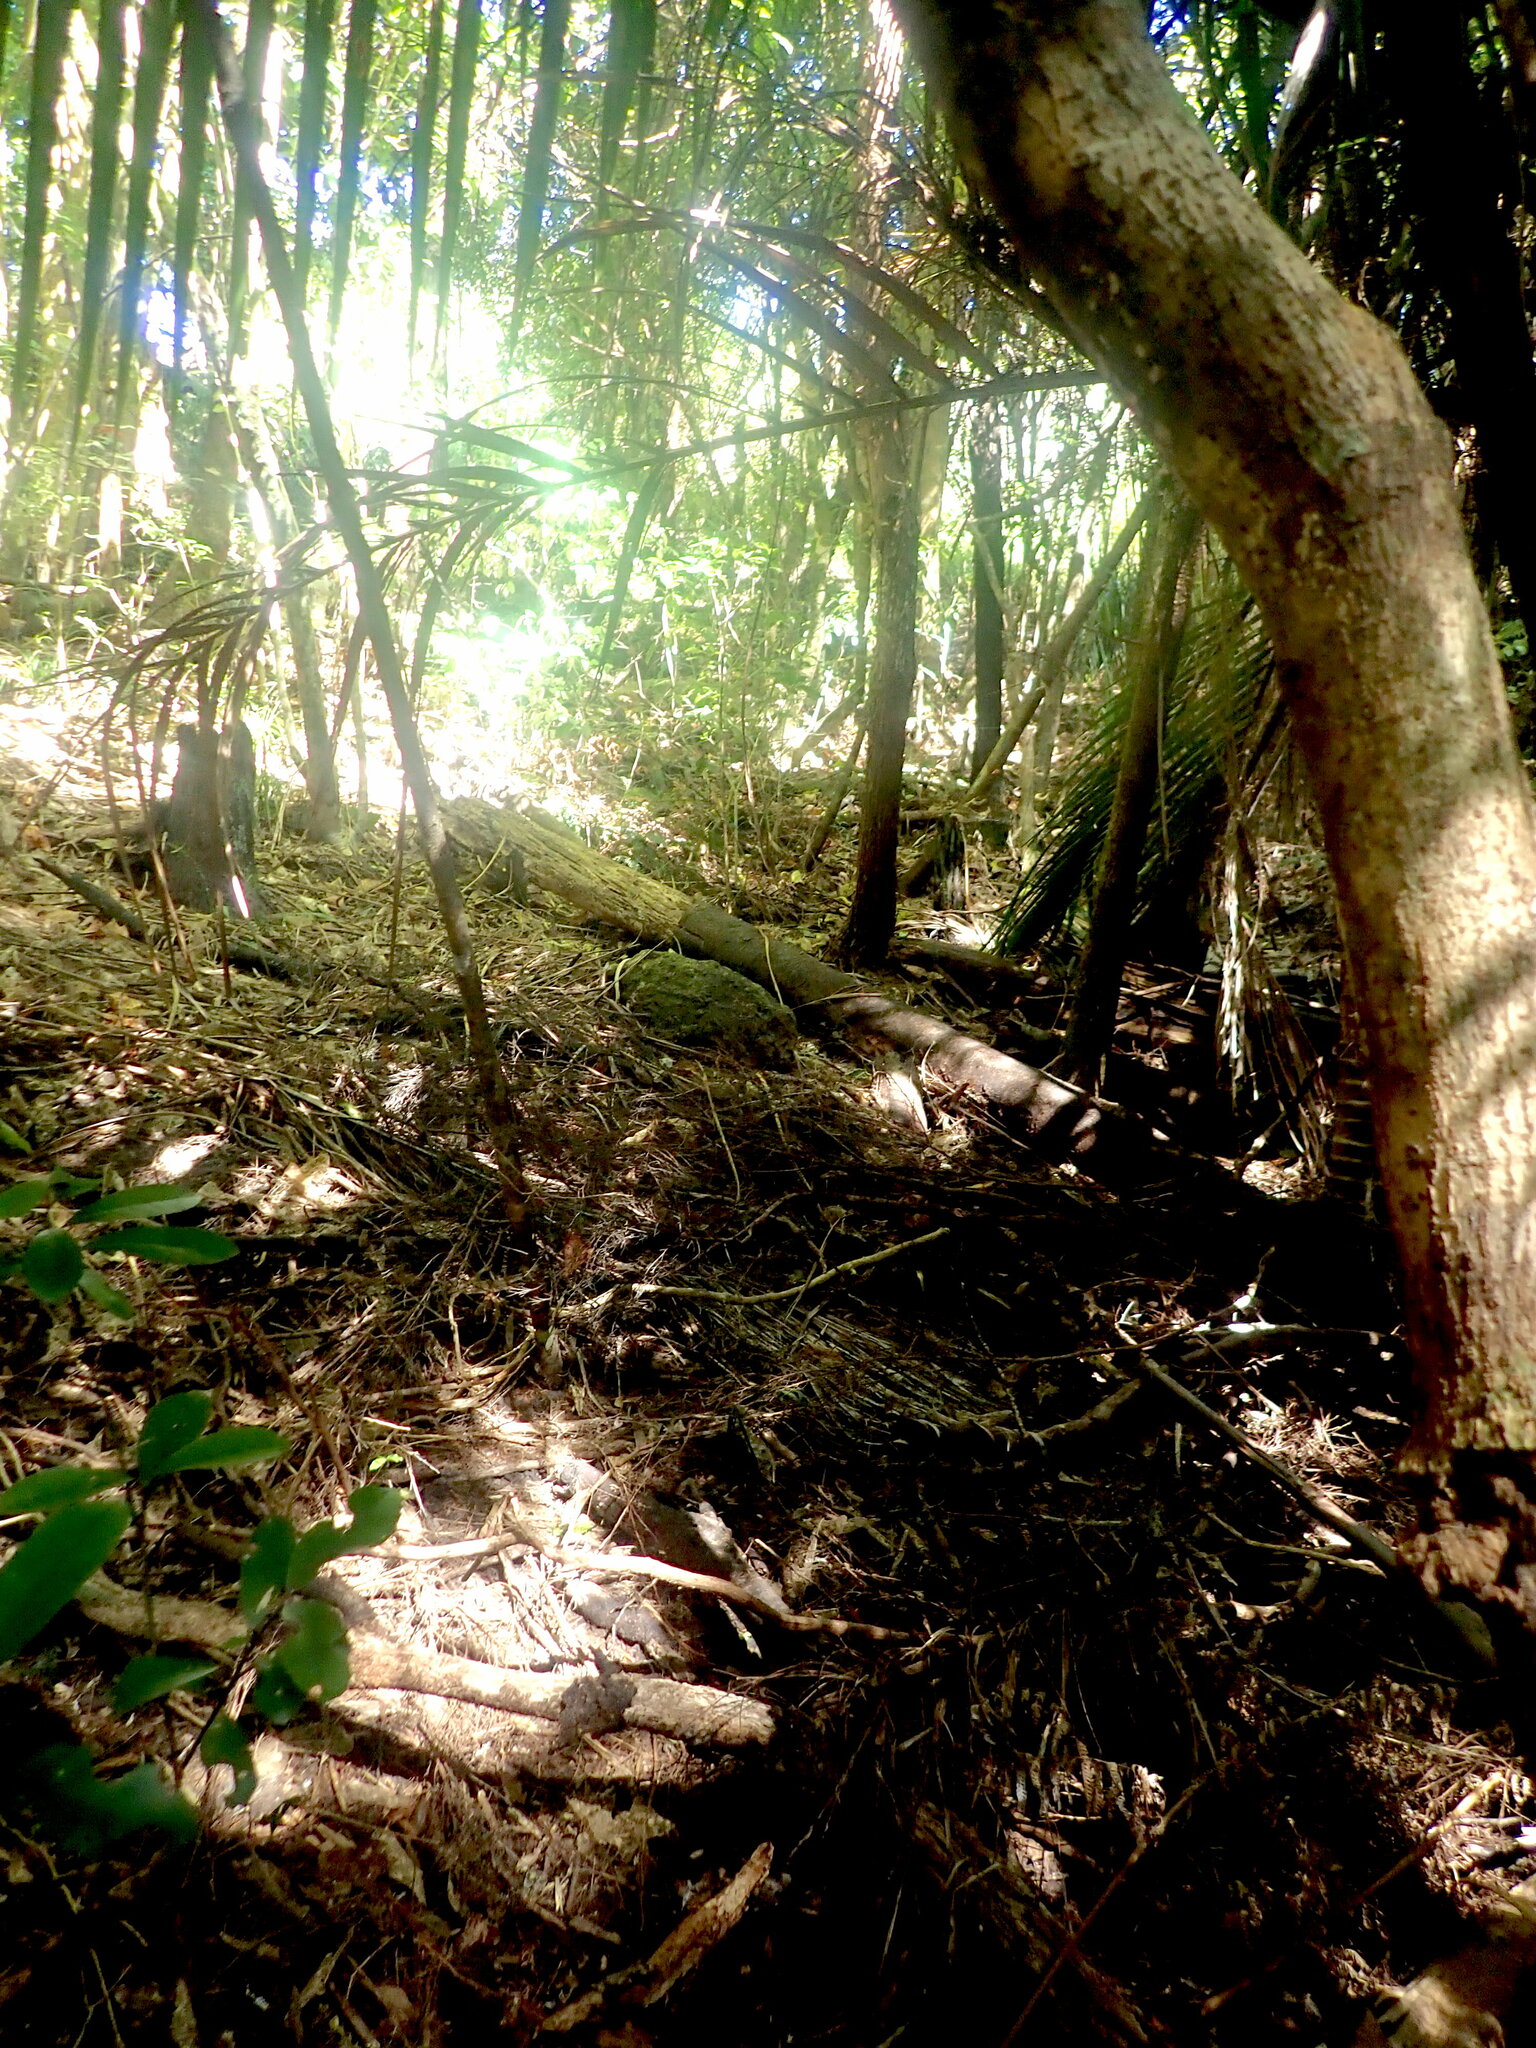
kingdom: Plantae
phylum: Tracheophyta
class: Magnoliopsida
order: Lamiales
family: Oleaceae
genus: Ligustrum
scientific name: Ligustrum lucidum
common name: Glossy privet
